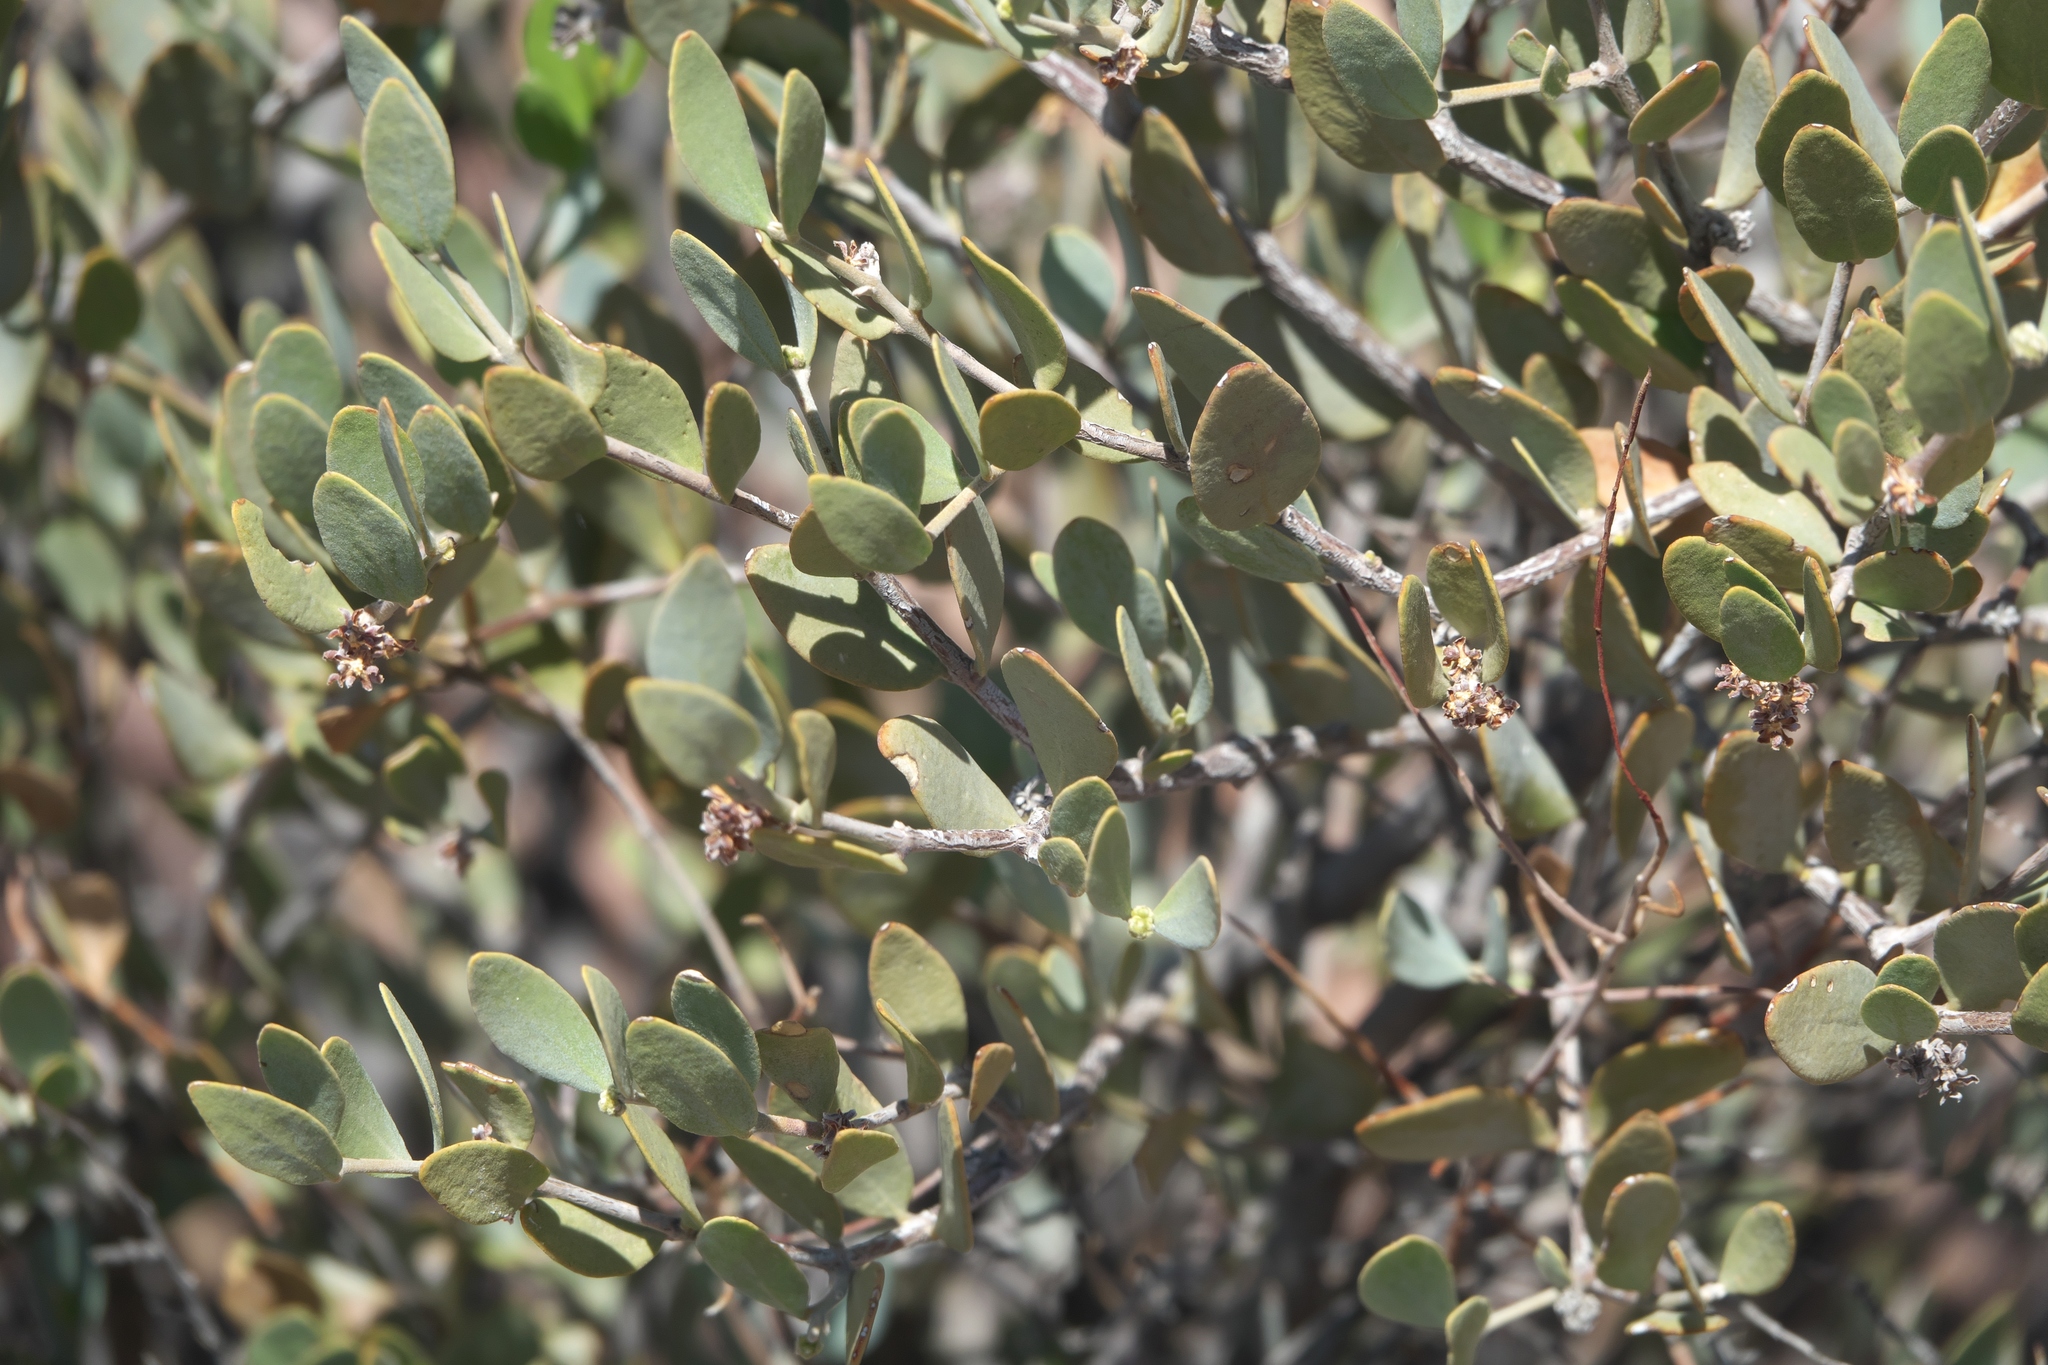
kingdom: Plantae
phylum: Tracheophyta
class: Magnoliopsida
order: Caryophyllales
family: Simmondsiaceae
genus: Simmondsia
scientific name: Simmondsia chinensis
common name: Jojoba
